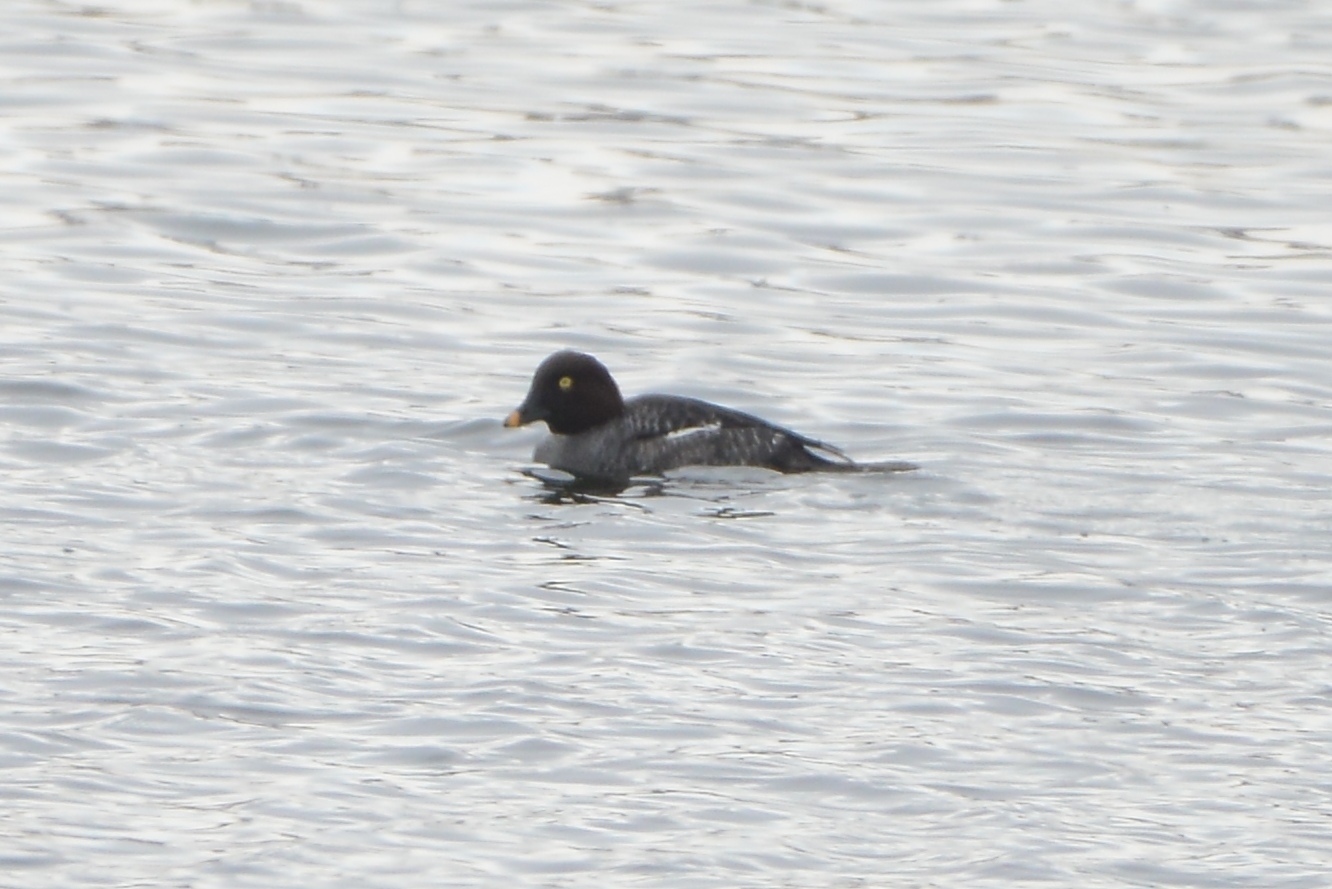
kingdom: Animalia
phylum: Chordata
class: Aves
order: Anseriformes
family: Anatidae
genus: Bucephala
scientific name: Bucephala clangula
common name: Common goldeneye
